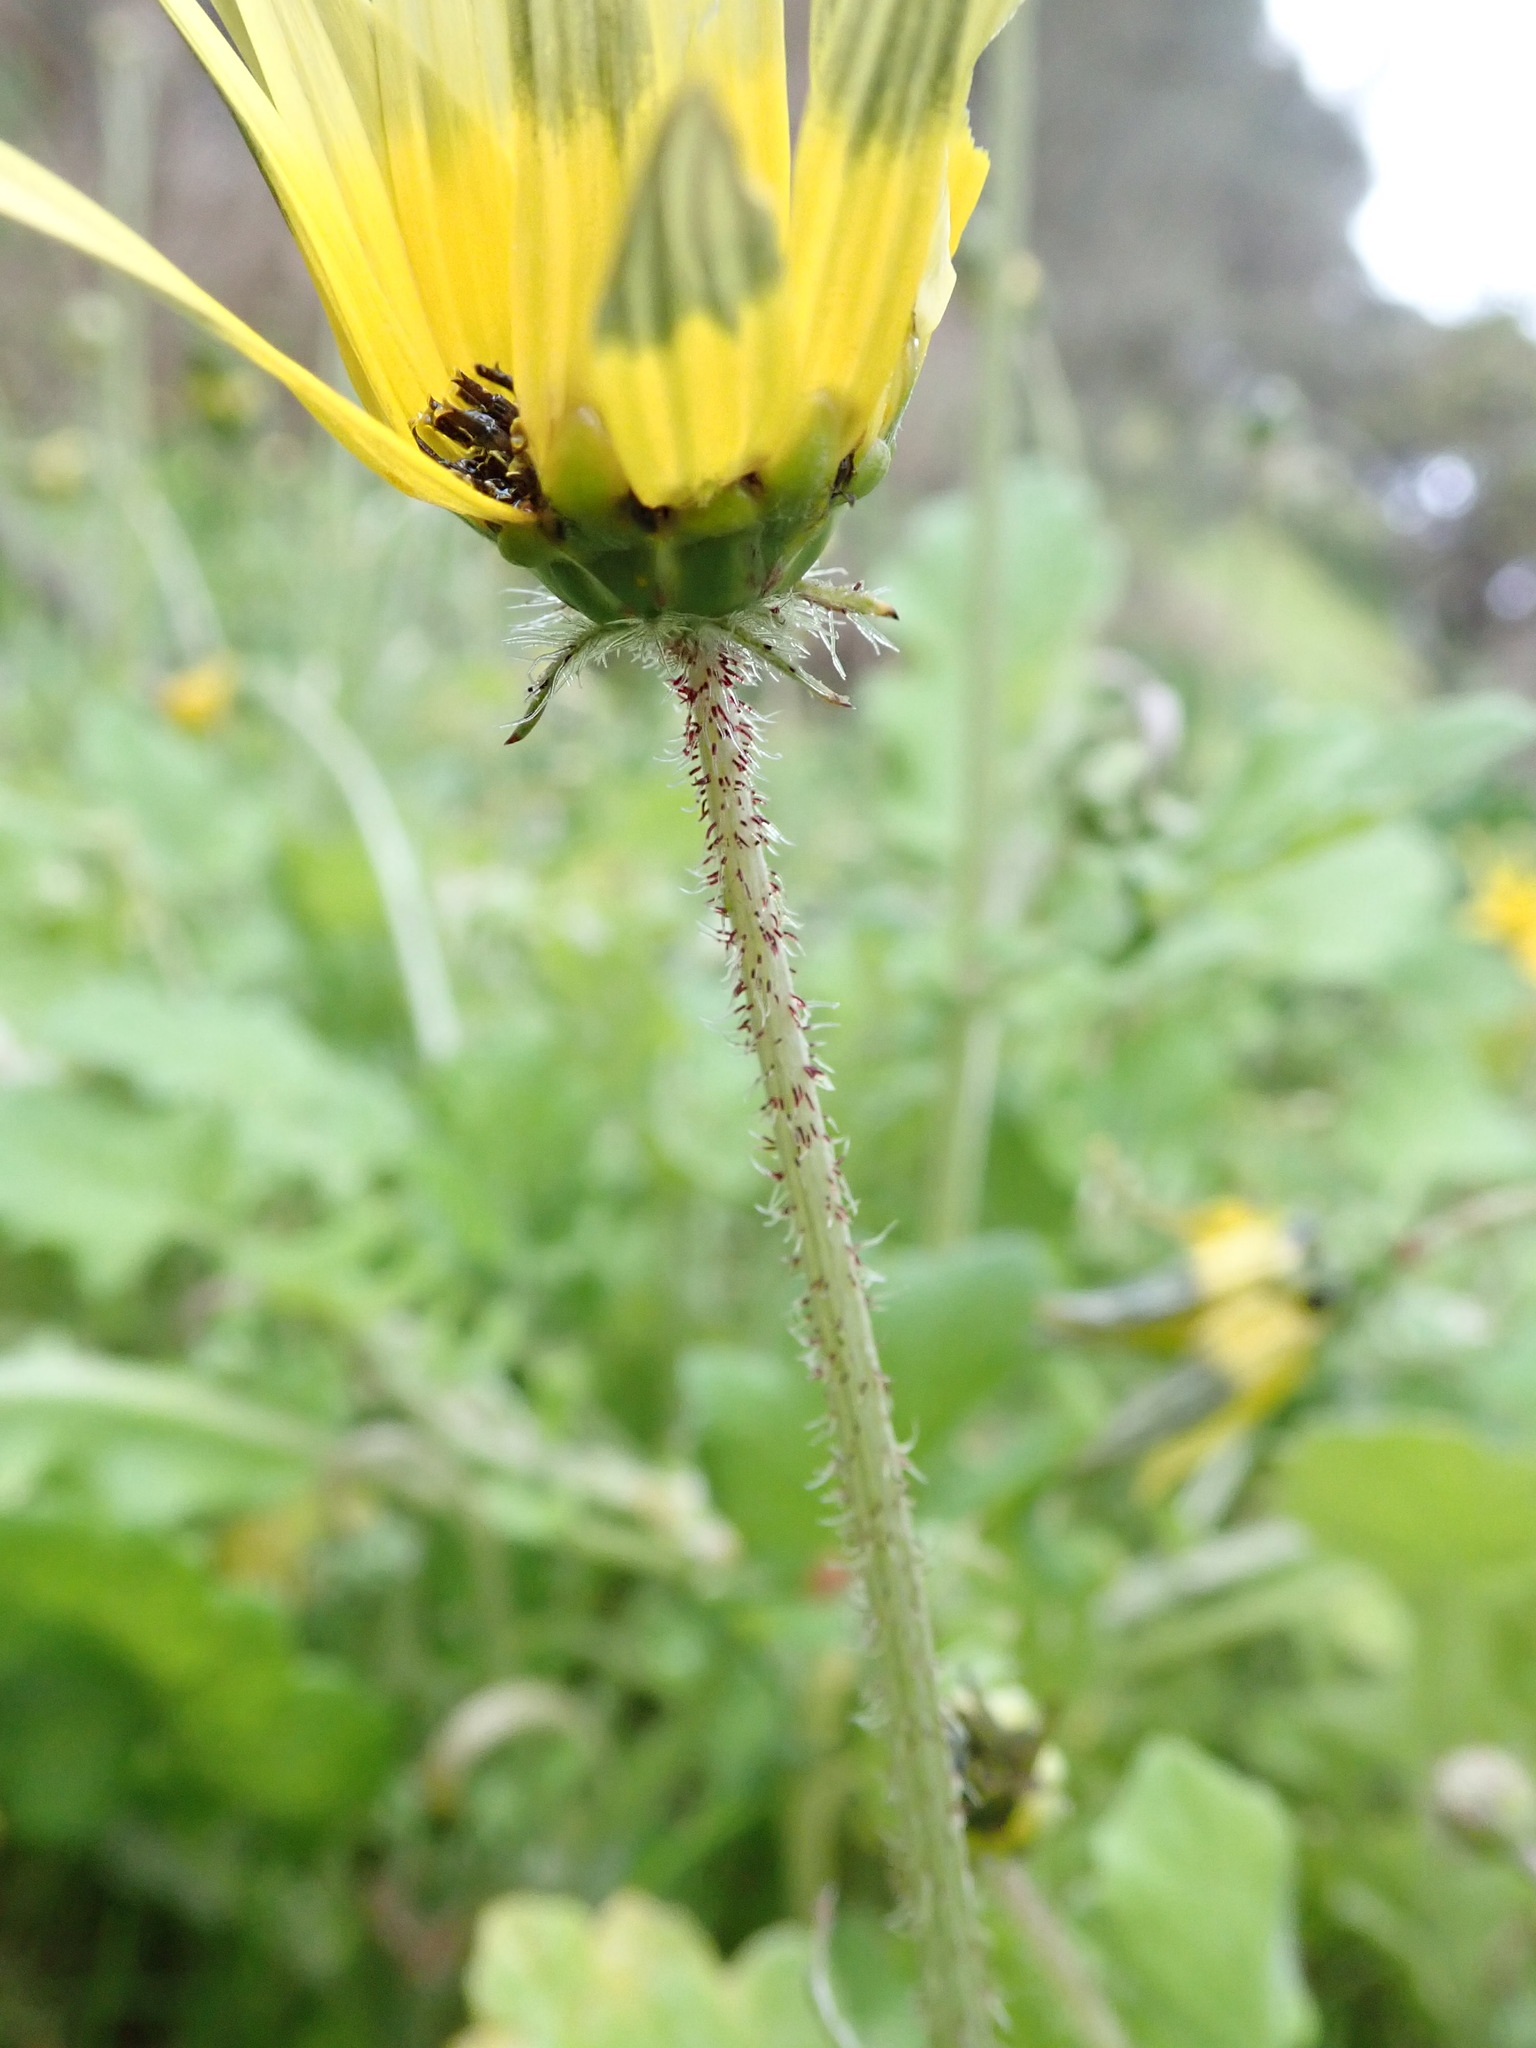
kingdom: Plantae
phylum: Tracheophyta
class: Magnoliopsida
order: Asterales
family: Asteraceae
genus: Arctotheca
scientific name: Arctotheca calendula
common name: Capeweed
